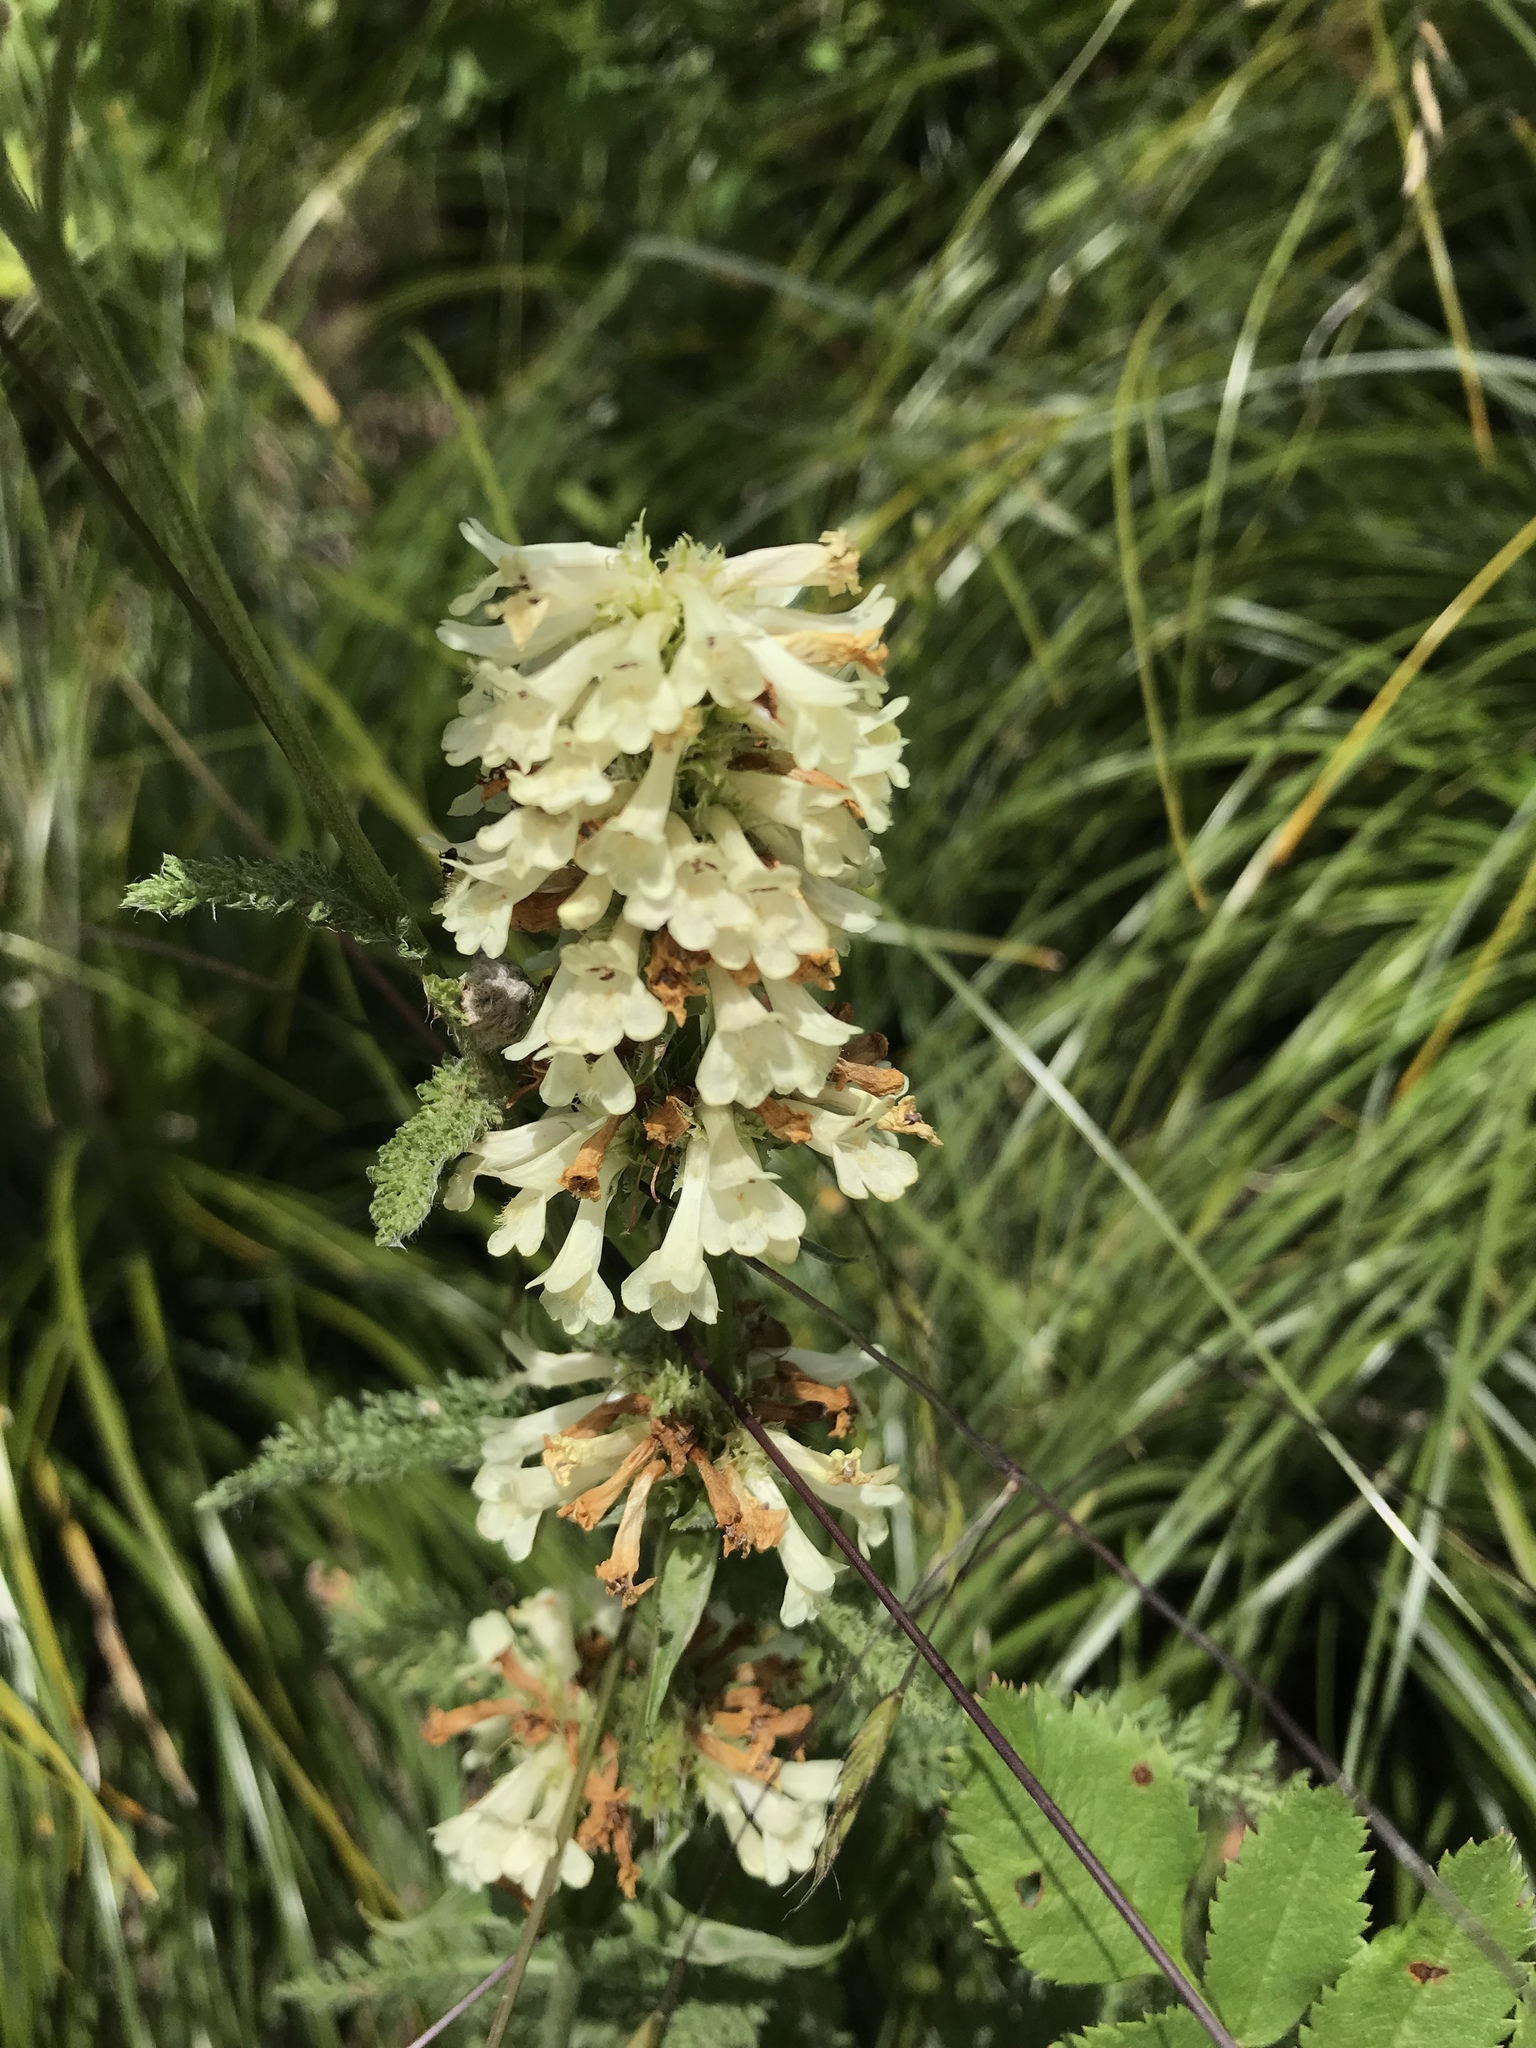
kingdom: Plantae
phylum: Tracheophyta
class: Magnoliopsida
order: Lamiales
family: Plantaginaceae
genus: Penstemon
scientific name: Penstemon confertus
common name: Lesser yellow beardtongue
